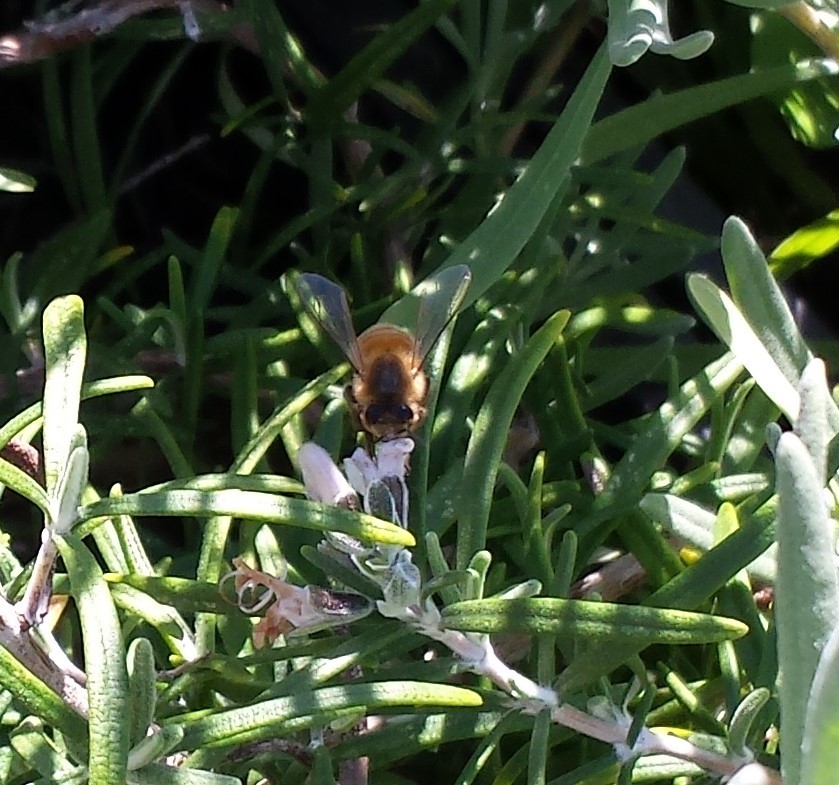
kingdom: Animalia
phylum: Arthropoda
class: Insecta
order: Hymenoptera
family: Apidae
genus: Apis
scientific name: Apis mellifera
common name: Honey bee
